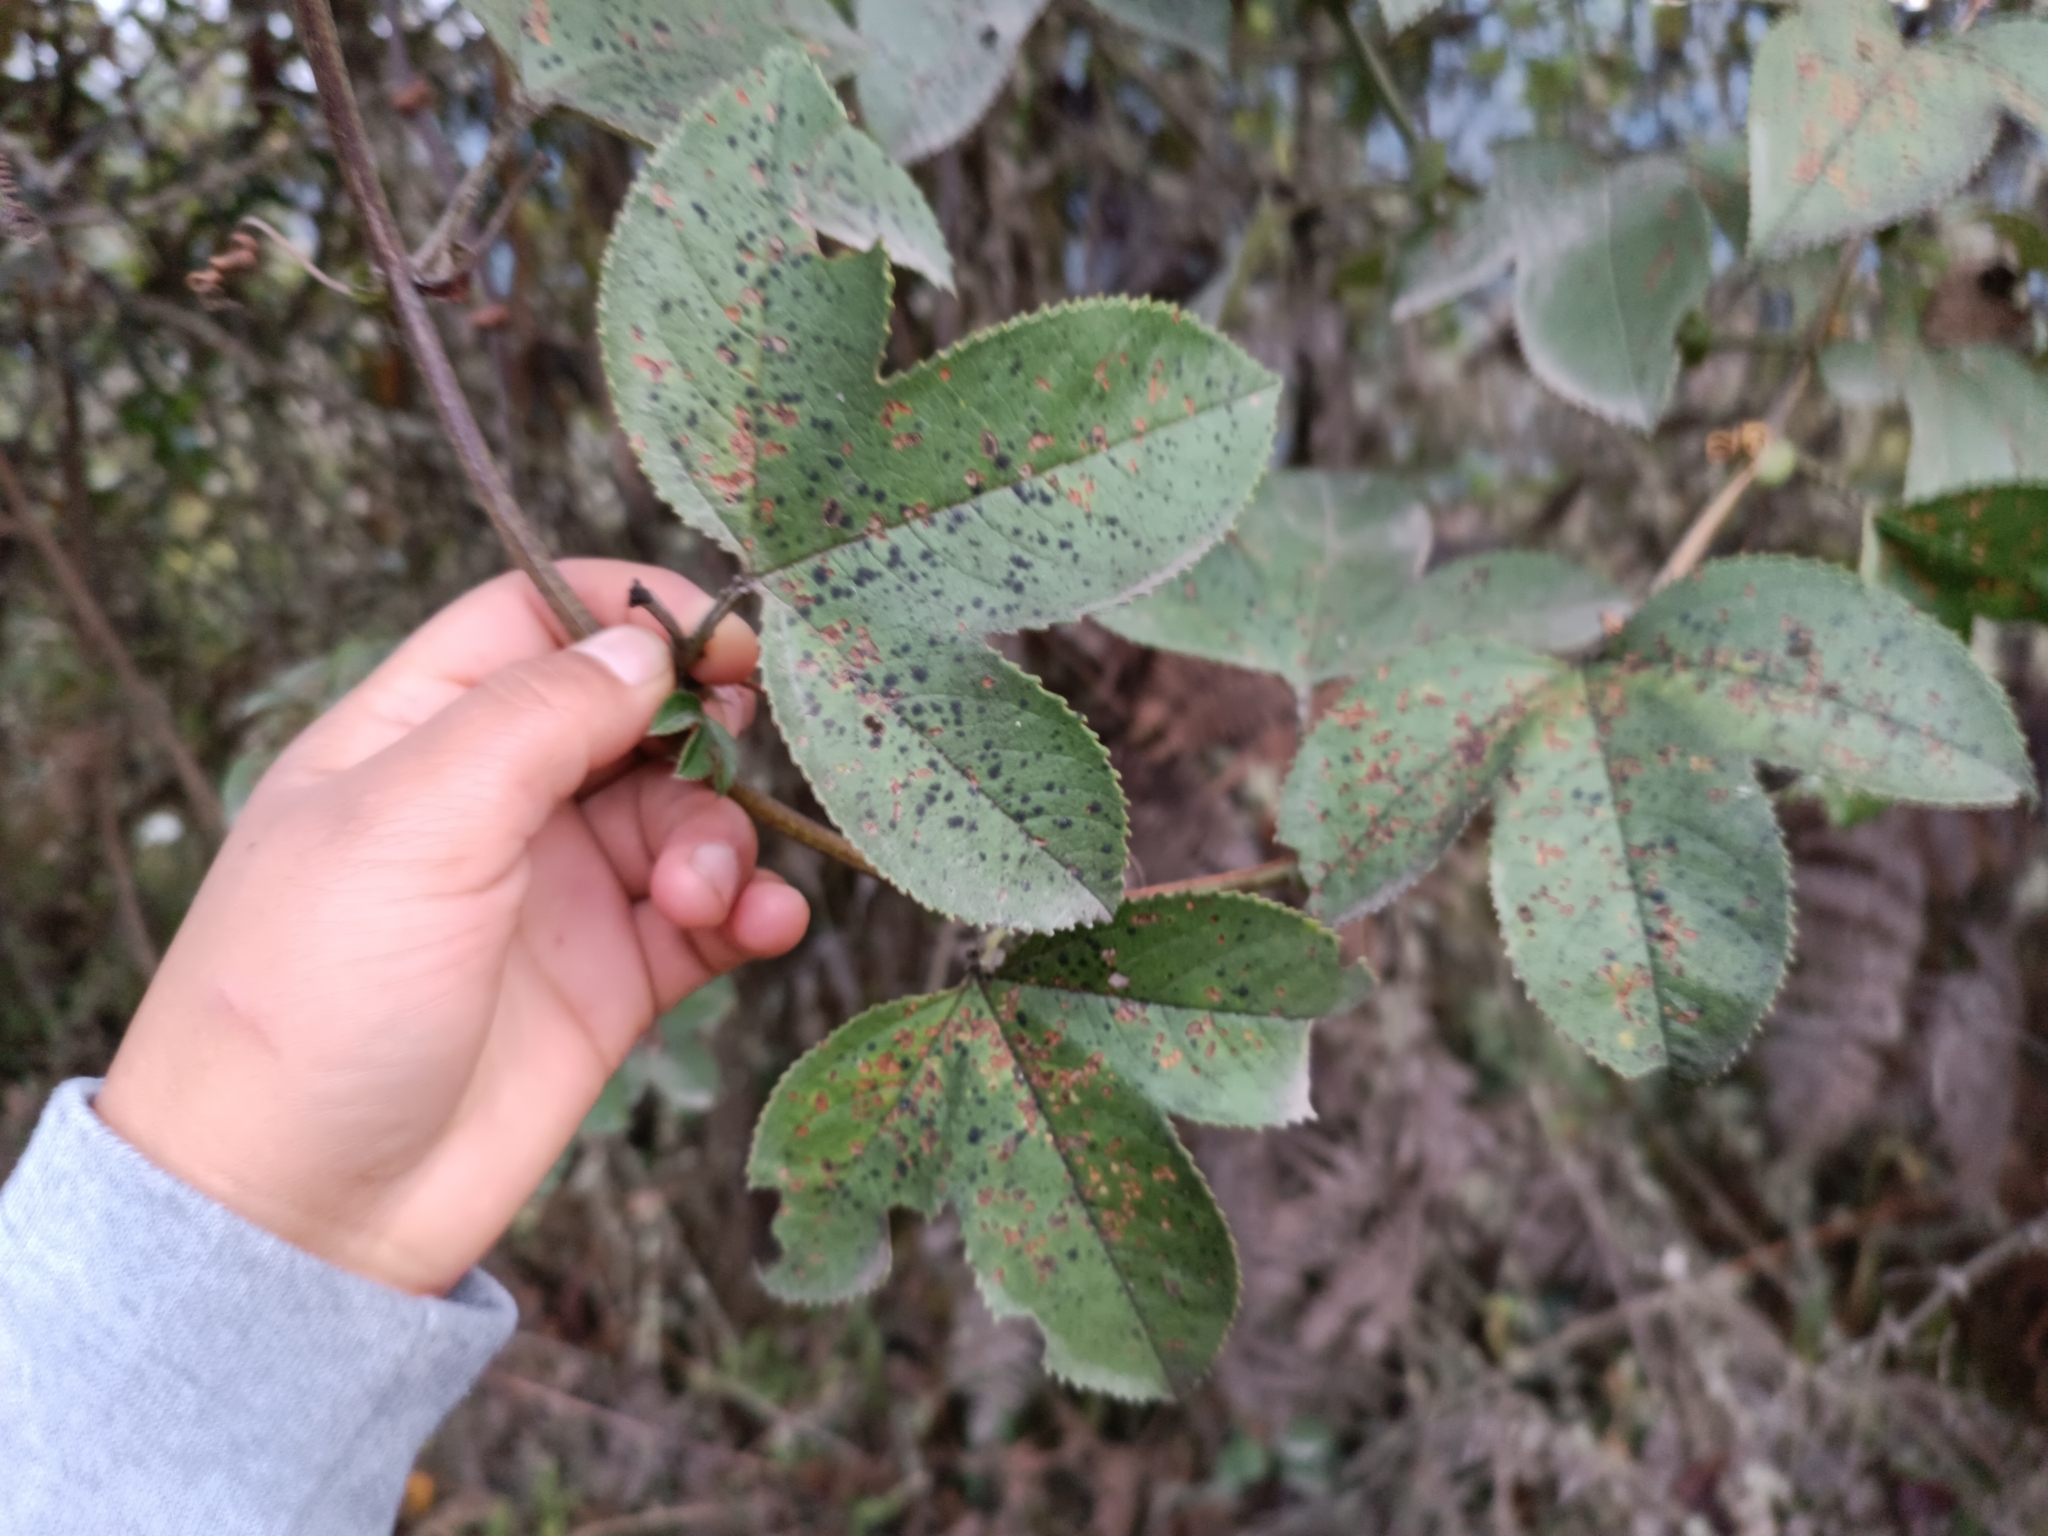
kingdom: Plantae
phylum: Tracheophyta
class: Magnoliopsida
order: Malpighiales
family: Passifloraceae
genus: Passiflora
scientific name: Passiflora mixta
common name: Passion flower
